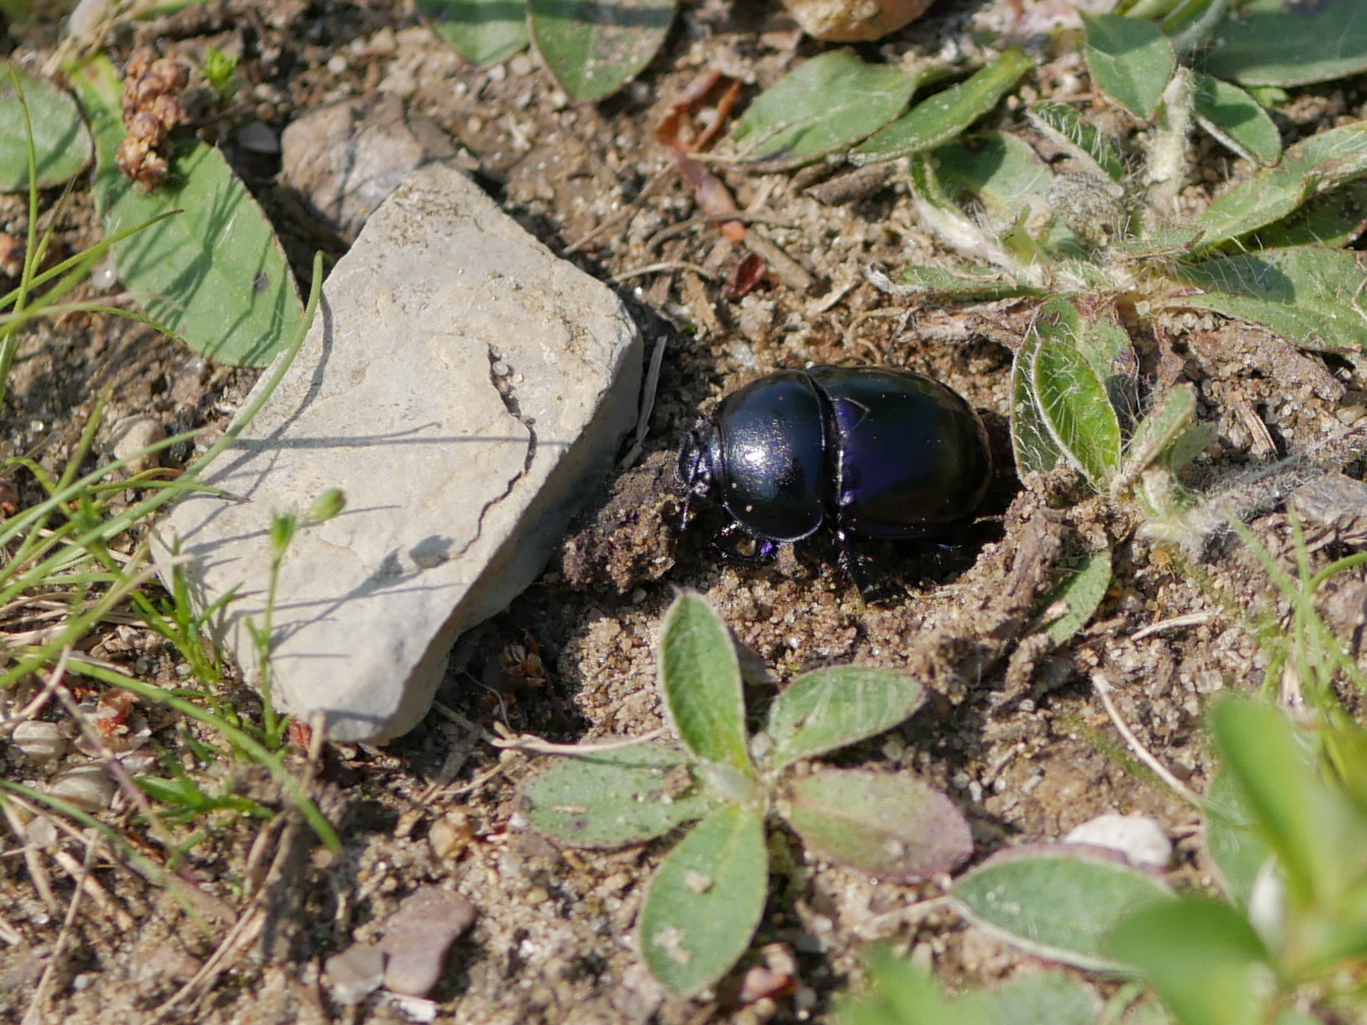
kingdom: Animalia
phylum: Arthropoda
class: Insecta
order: Coleoptera
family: Geotrupidae
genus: Trypocopris
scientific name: Trypocopris vernalis
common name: Spring dumbledor
